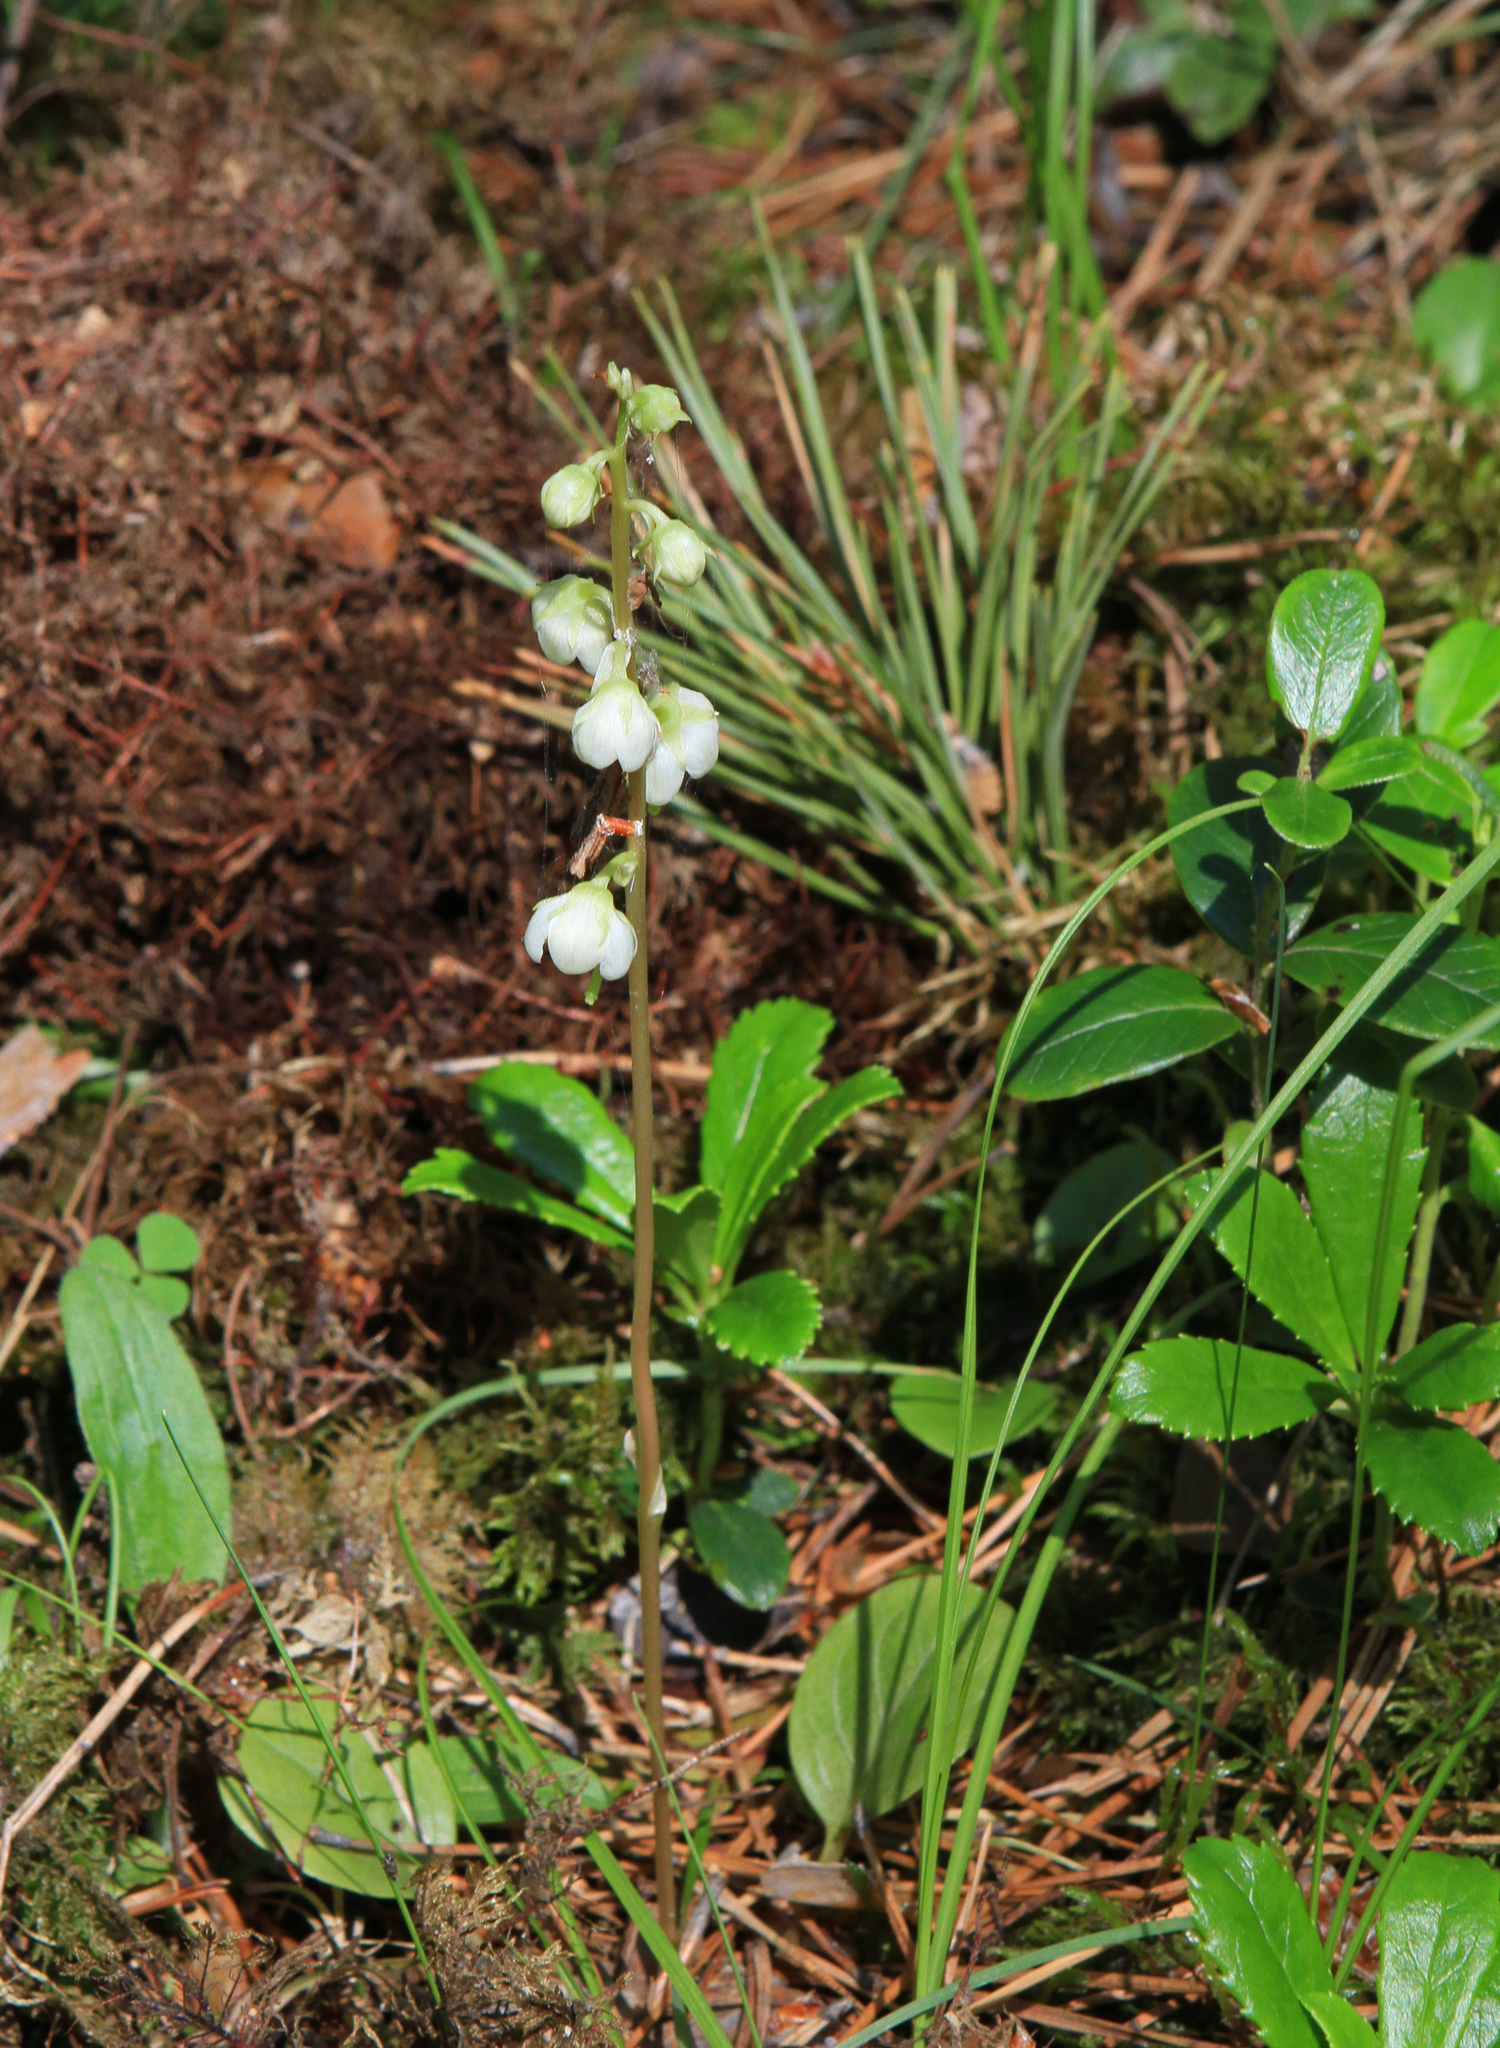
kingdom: Plantae
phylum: Tracheophyta
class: Magnoliopsida
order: Ericales
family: Ericaceae
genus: Pyrola
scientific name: Pyrola rotundifolia
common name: Round-leaved wintergreen
